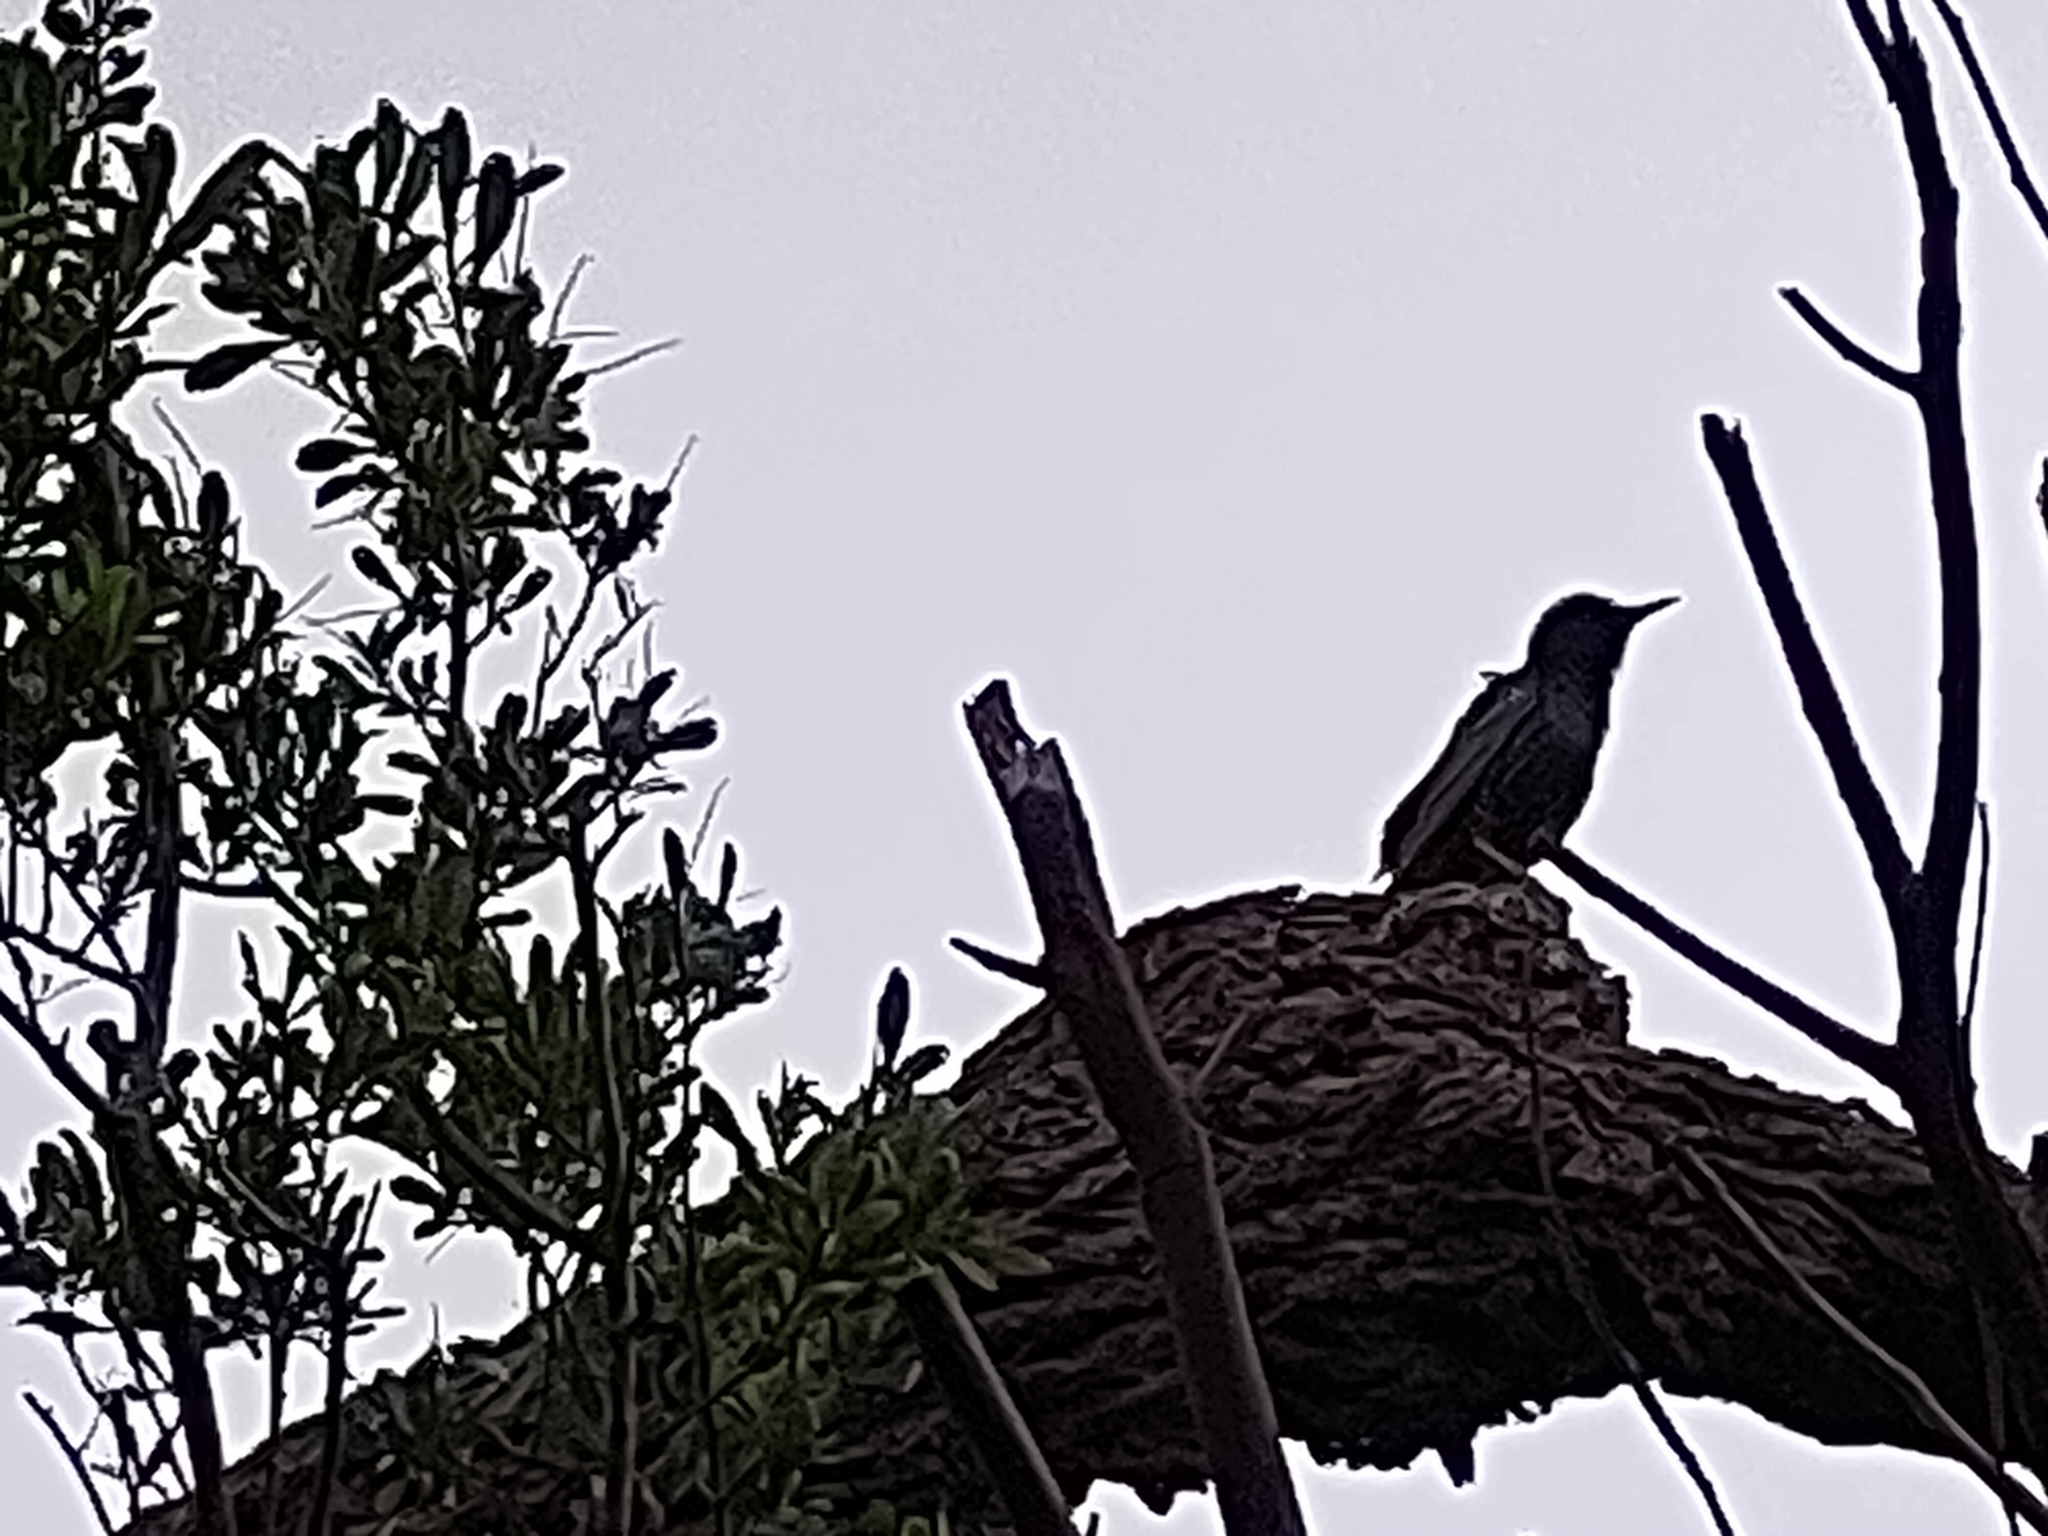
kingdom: Animalia
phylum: Chordata
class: Aves
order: Passeriformes
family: Sturnidae
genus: Sturnus
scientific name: Sturnus vulgaris
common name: Common starling
